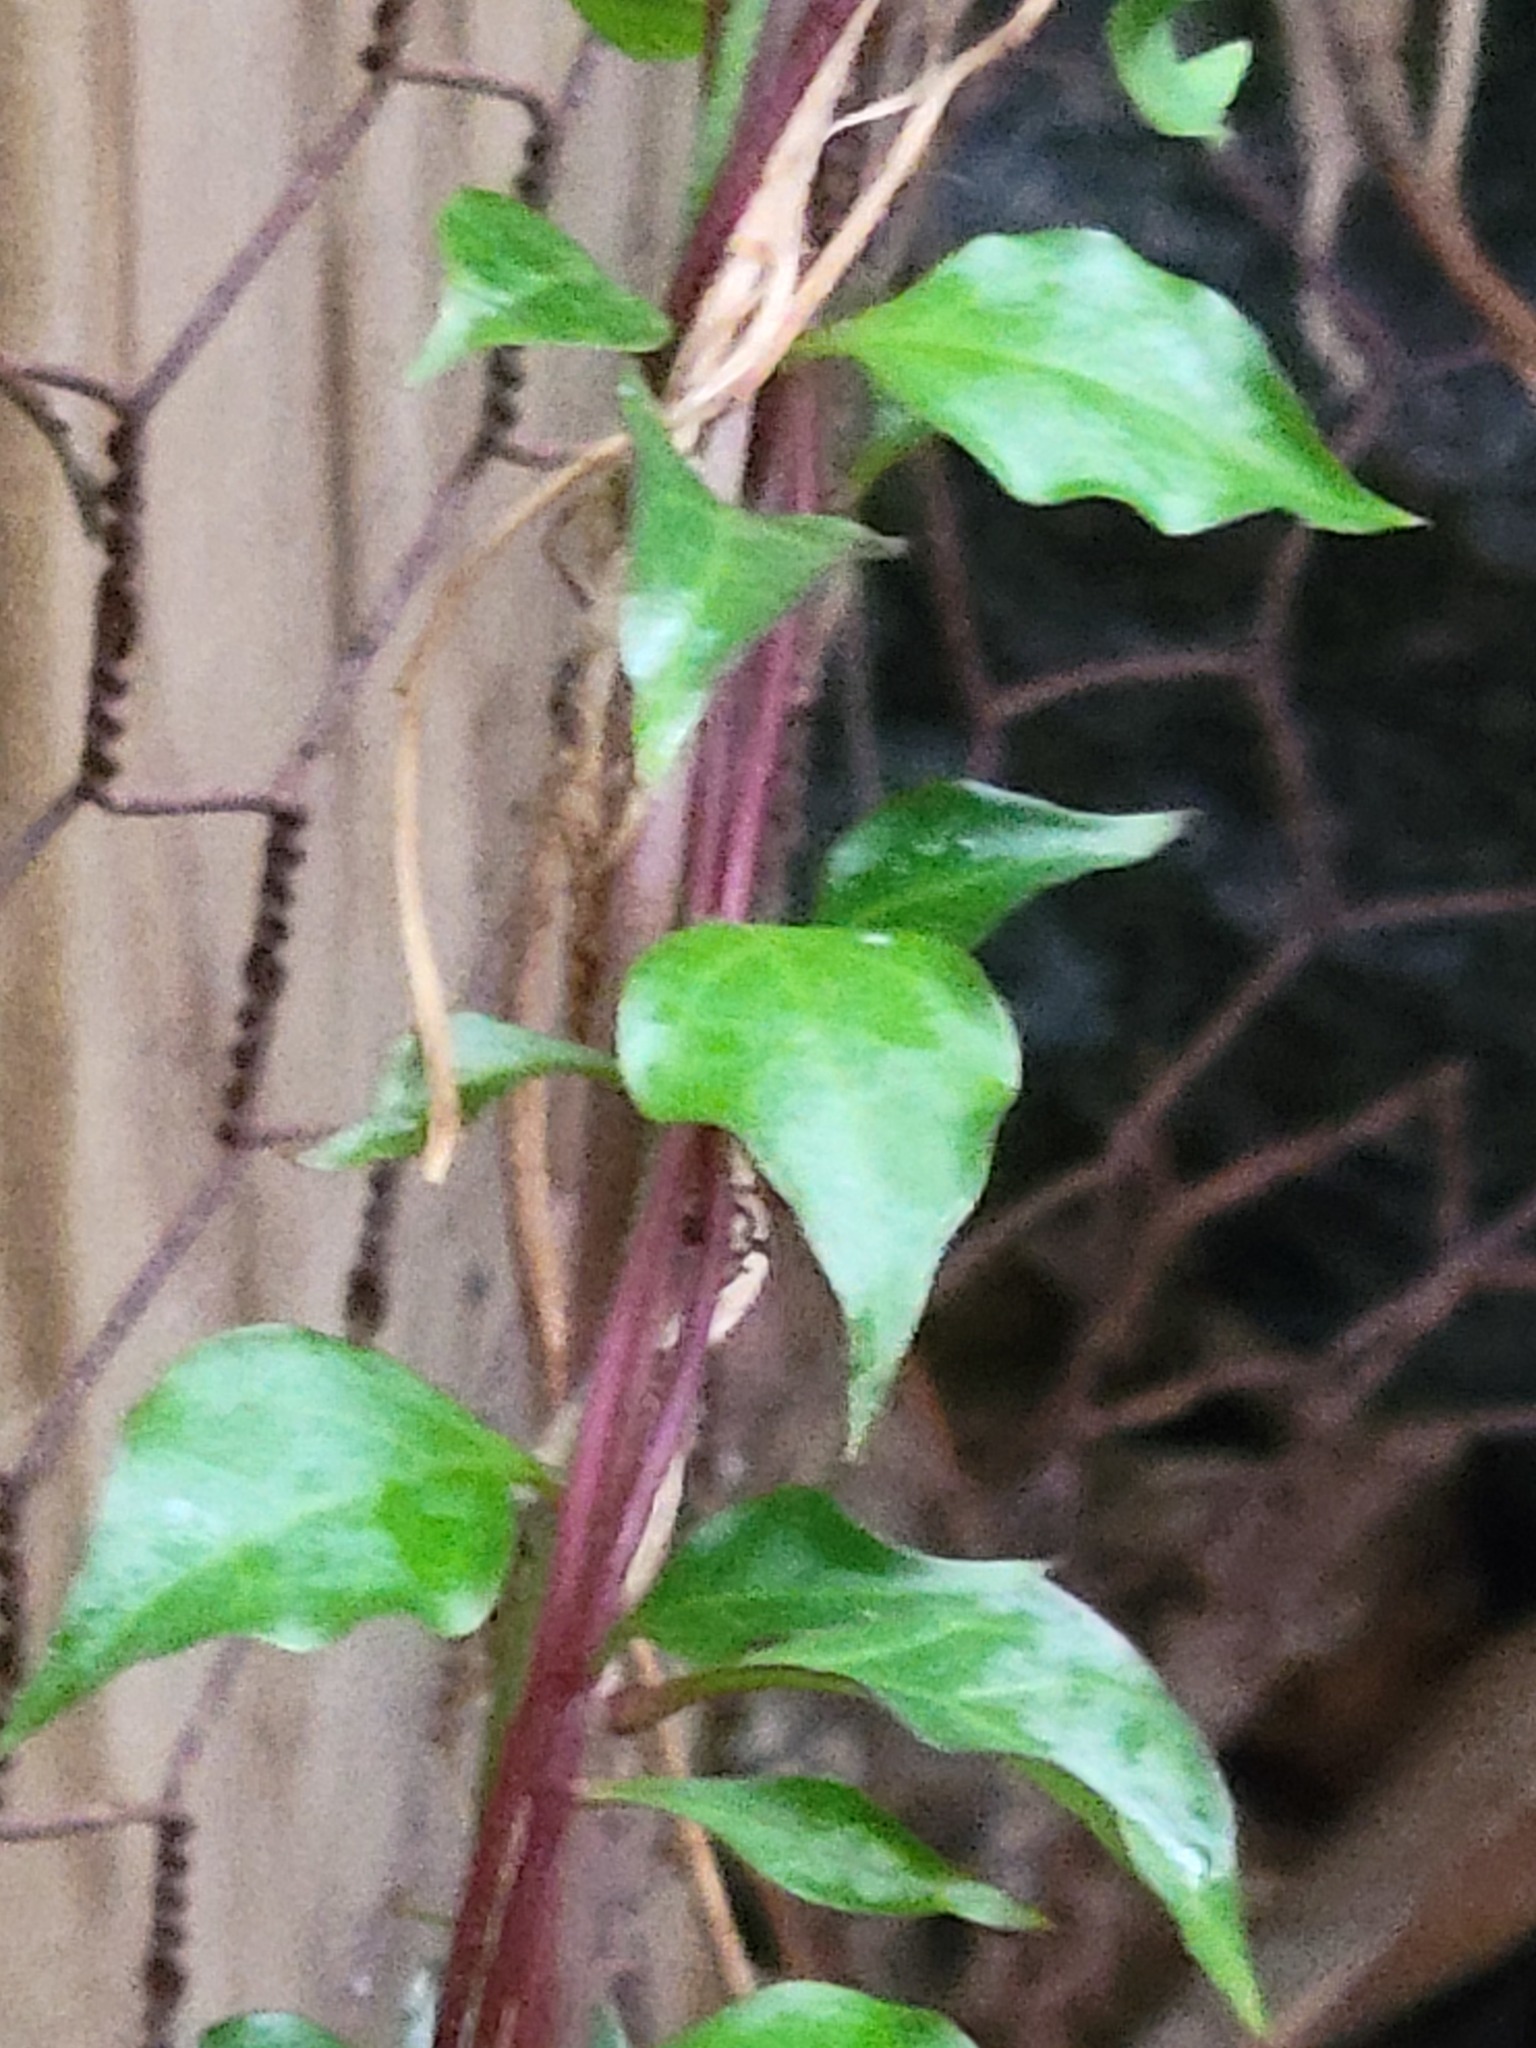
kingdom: Plantae
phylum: Tracheophyta
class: Magnoliopsida
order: Caryophyllales
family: Basellaceae
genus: Anredera
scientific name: Anredera vesicaria
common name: Sacasile
